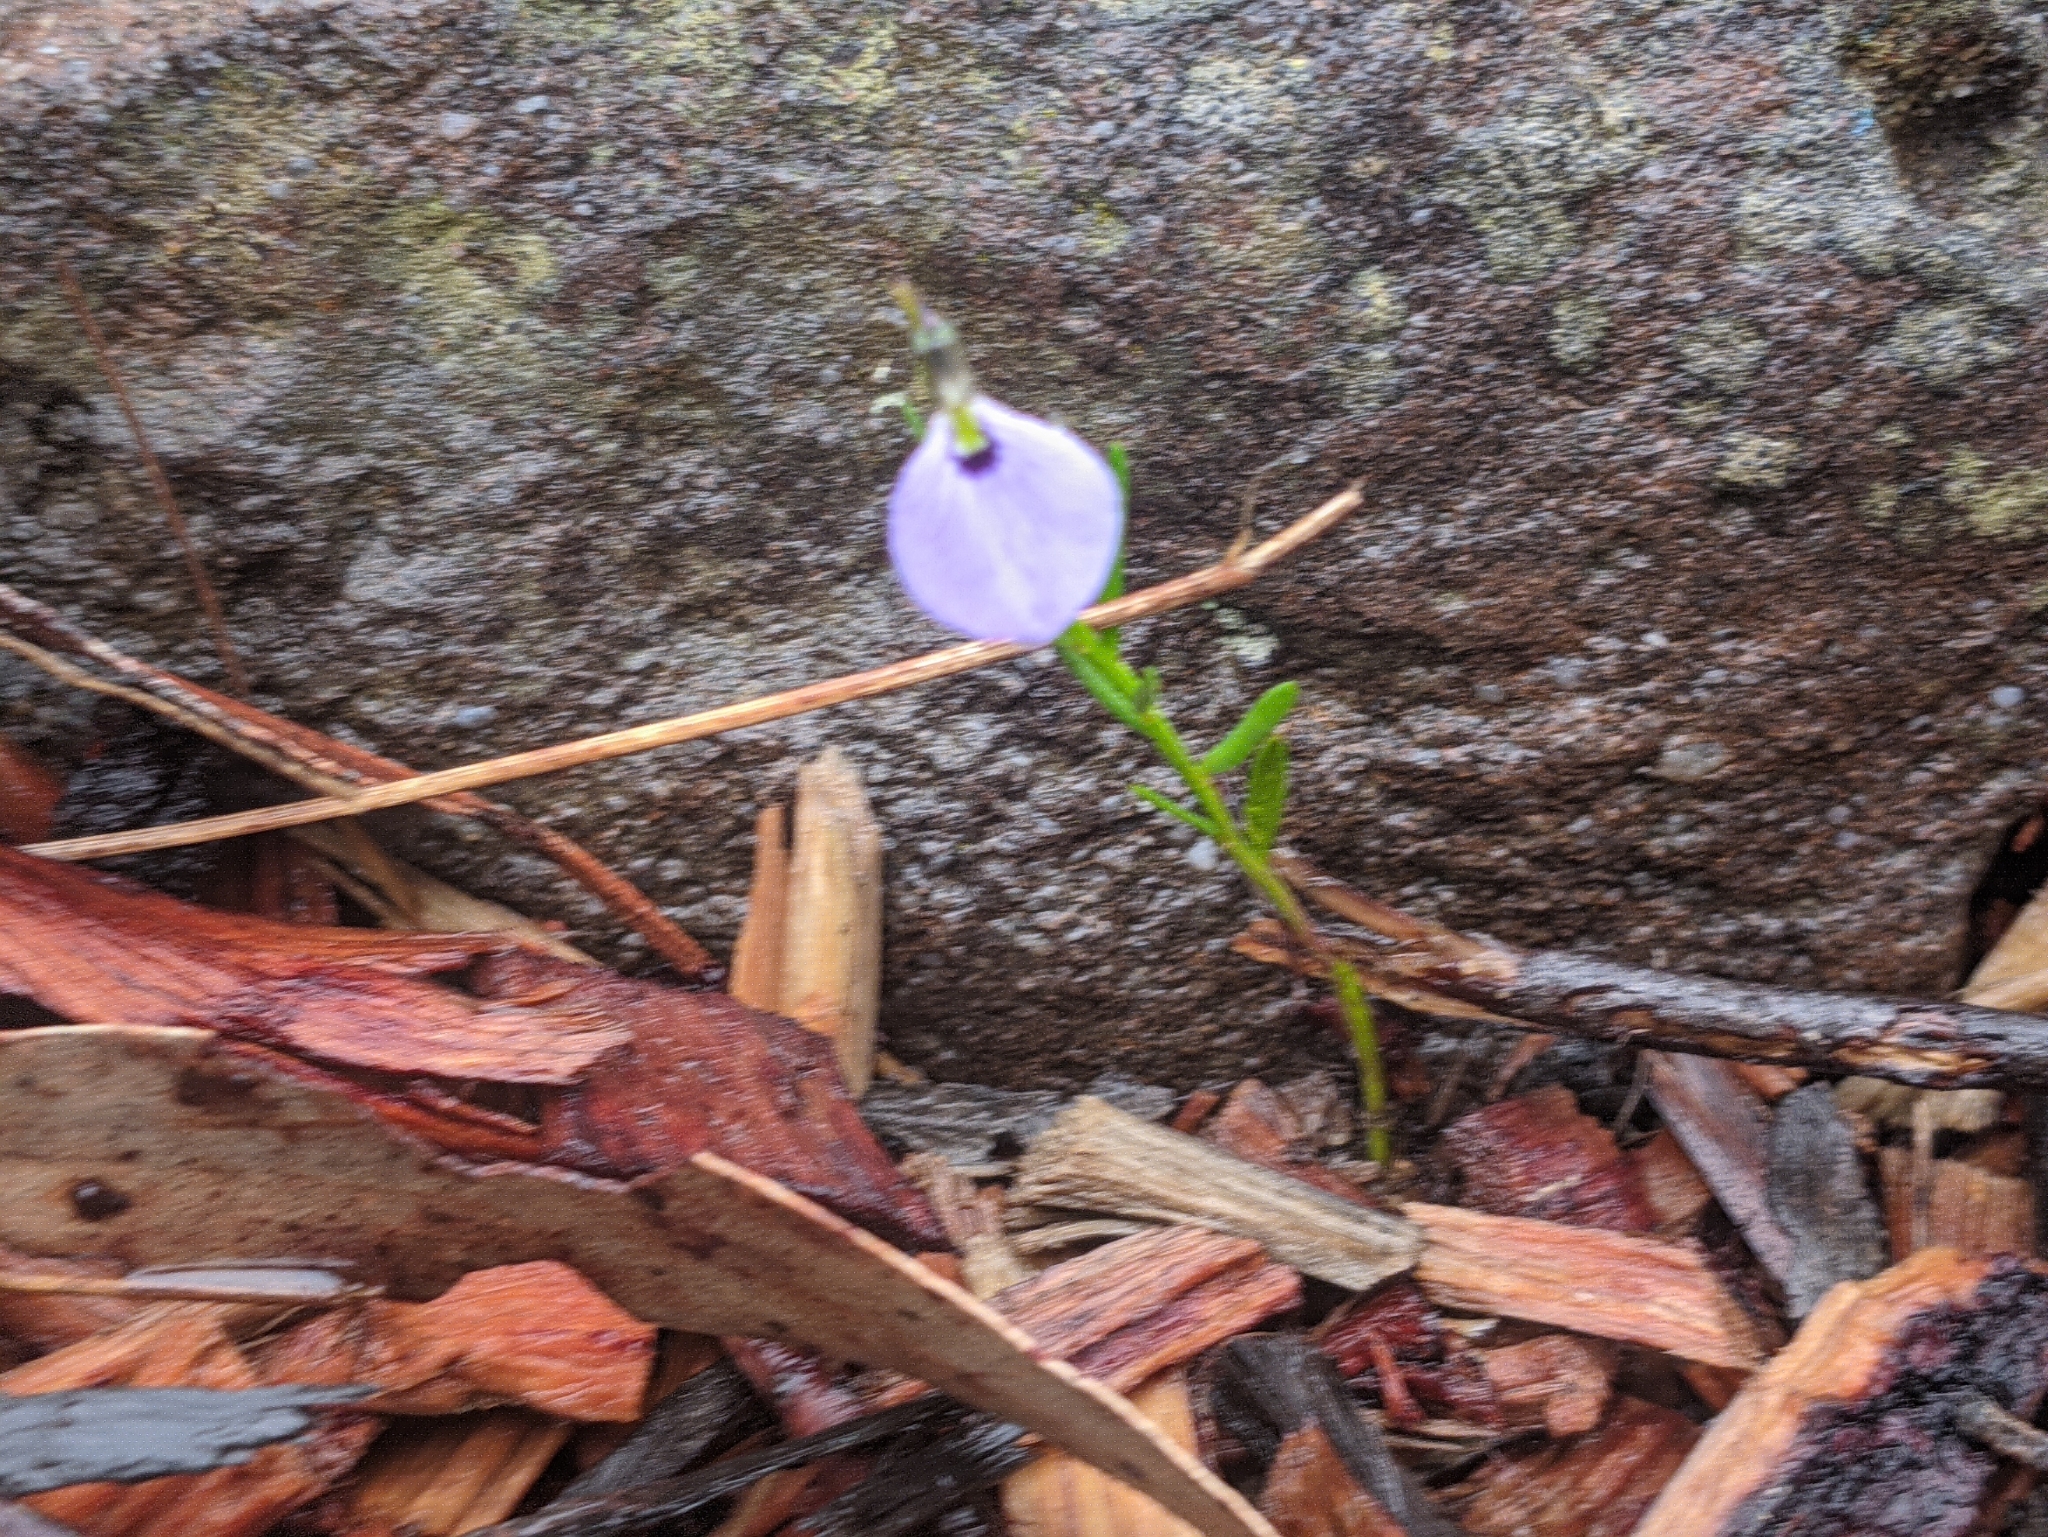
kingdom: Plantae
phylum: Tracheophyta
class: Magnoliopsida
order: Malpighiales
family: Violaceae
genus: Pigea
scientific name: Pigea monopetala
